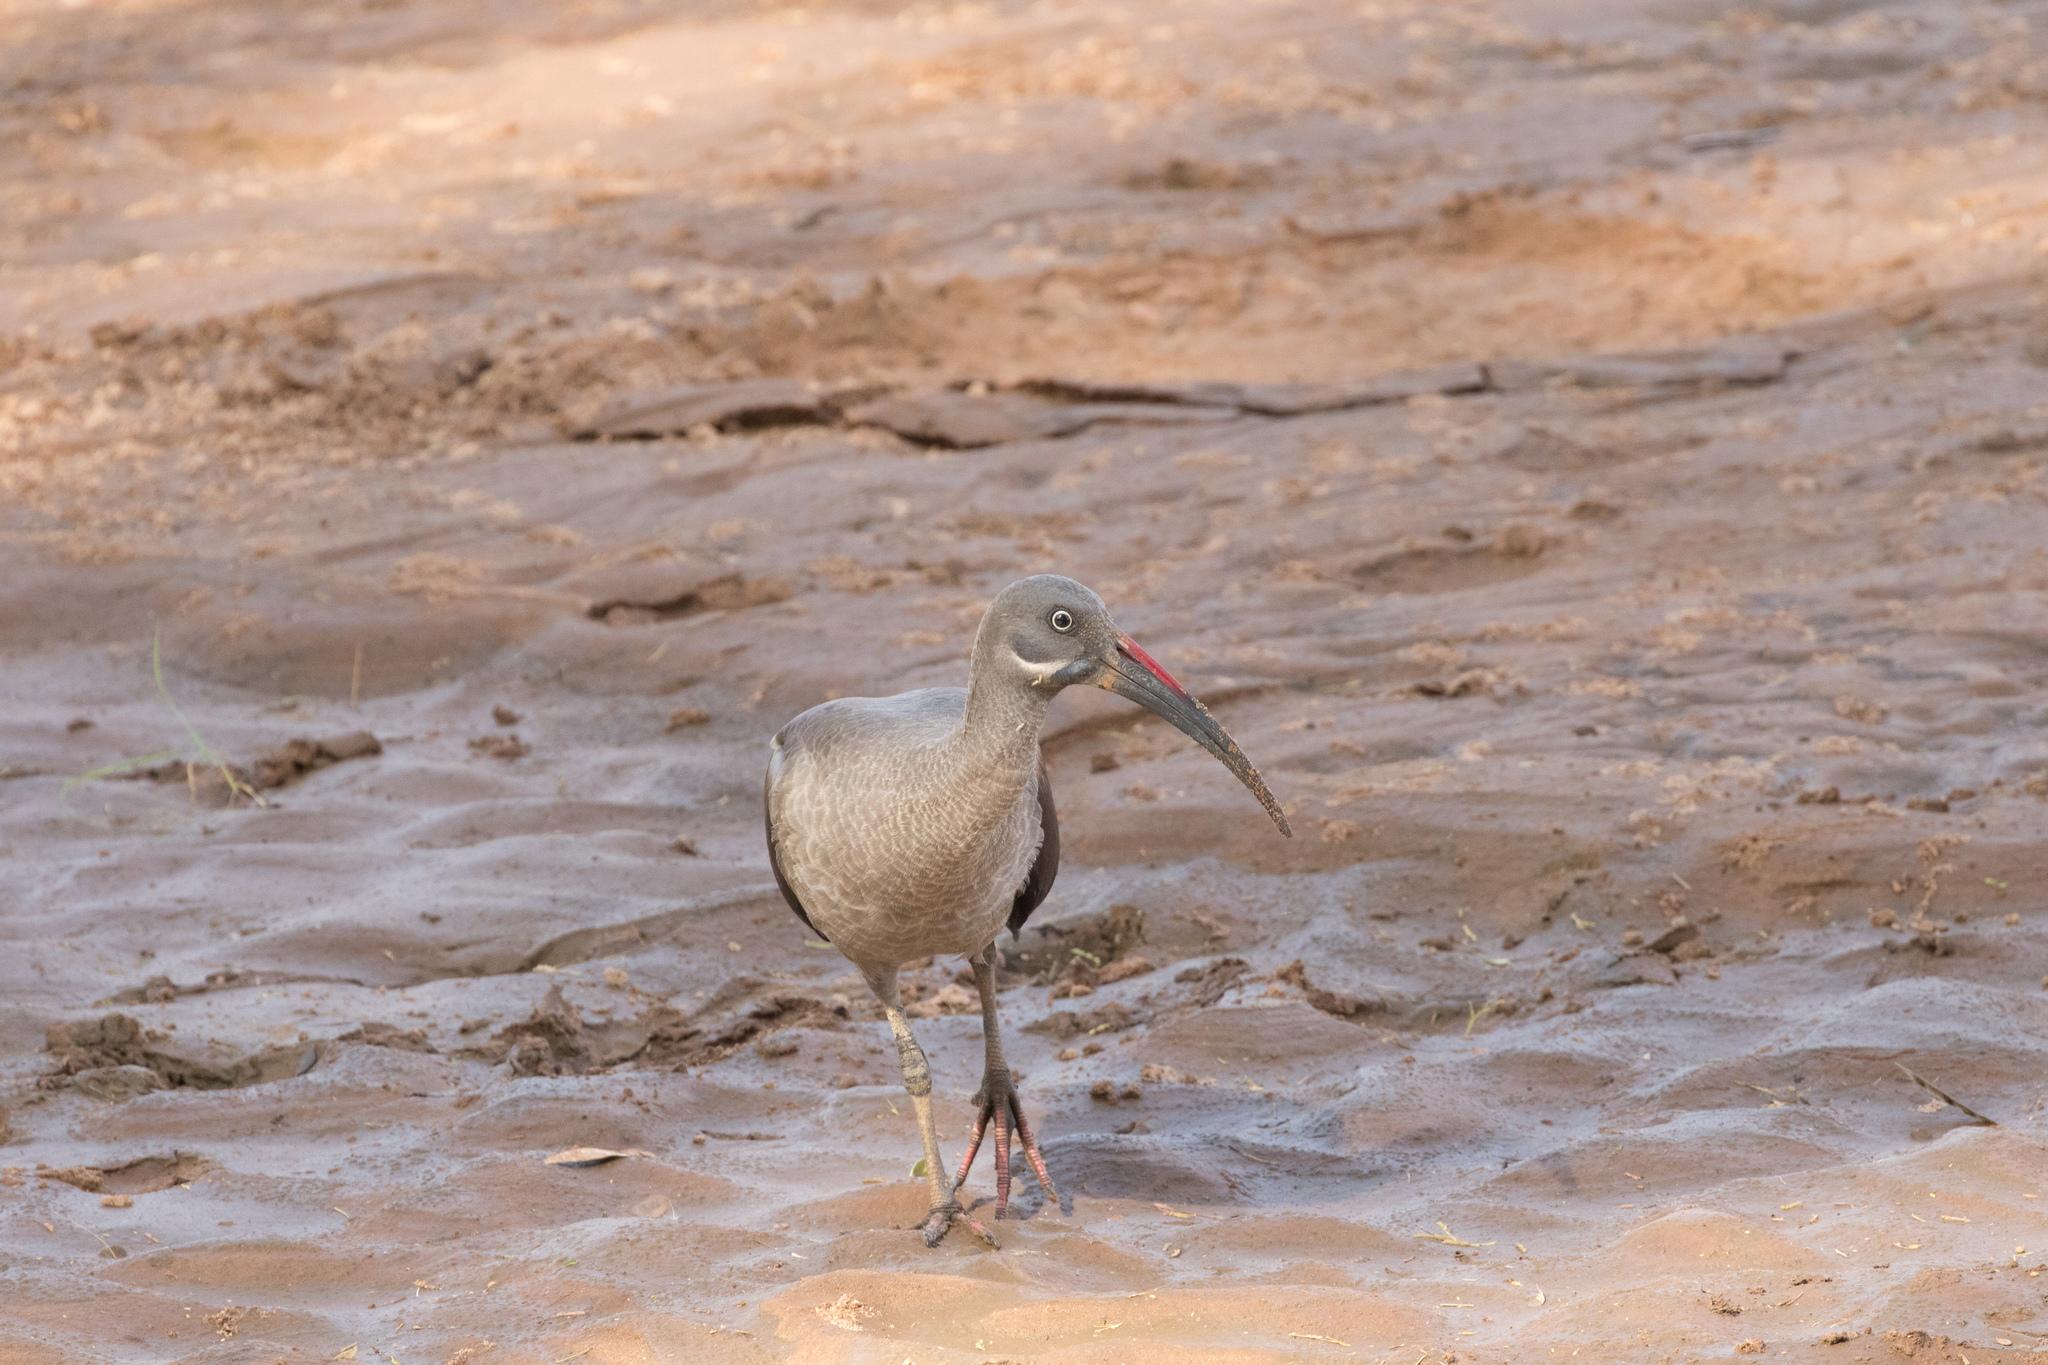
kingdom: Animalia
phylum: Chordata
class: Aves
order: Pelecaniformes
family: Threskiornithidae
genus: Bostrychia
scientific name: Bostrychia hagedash
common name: Hadada ibis
